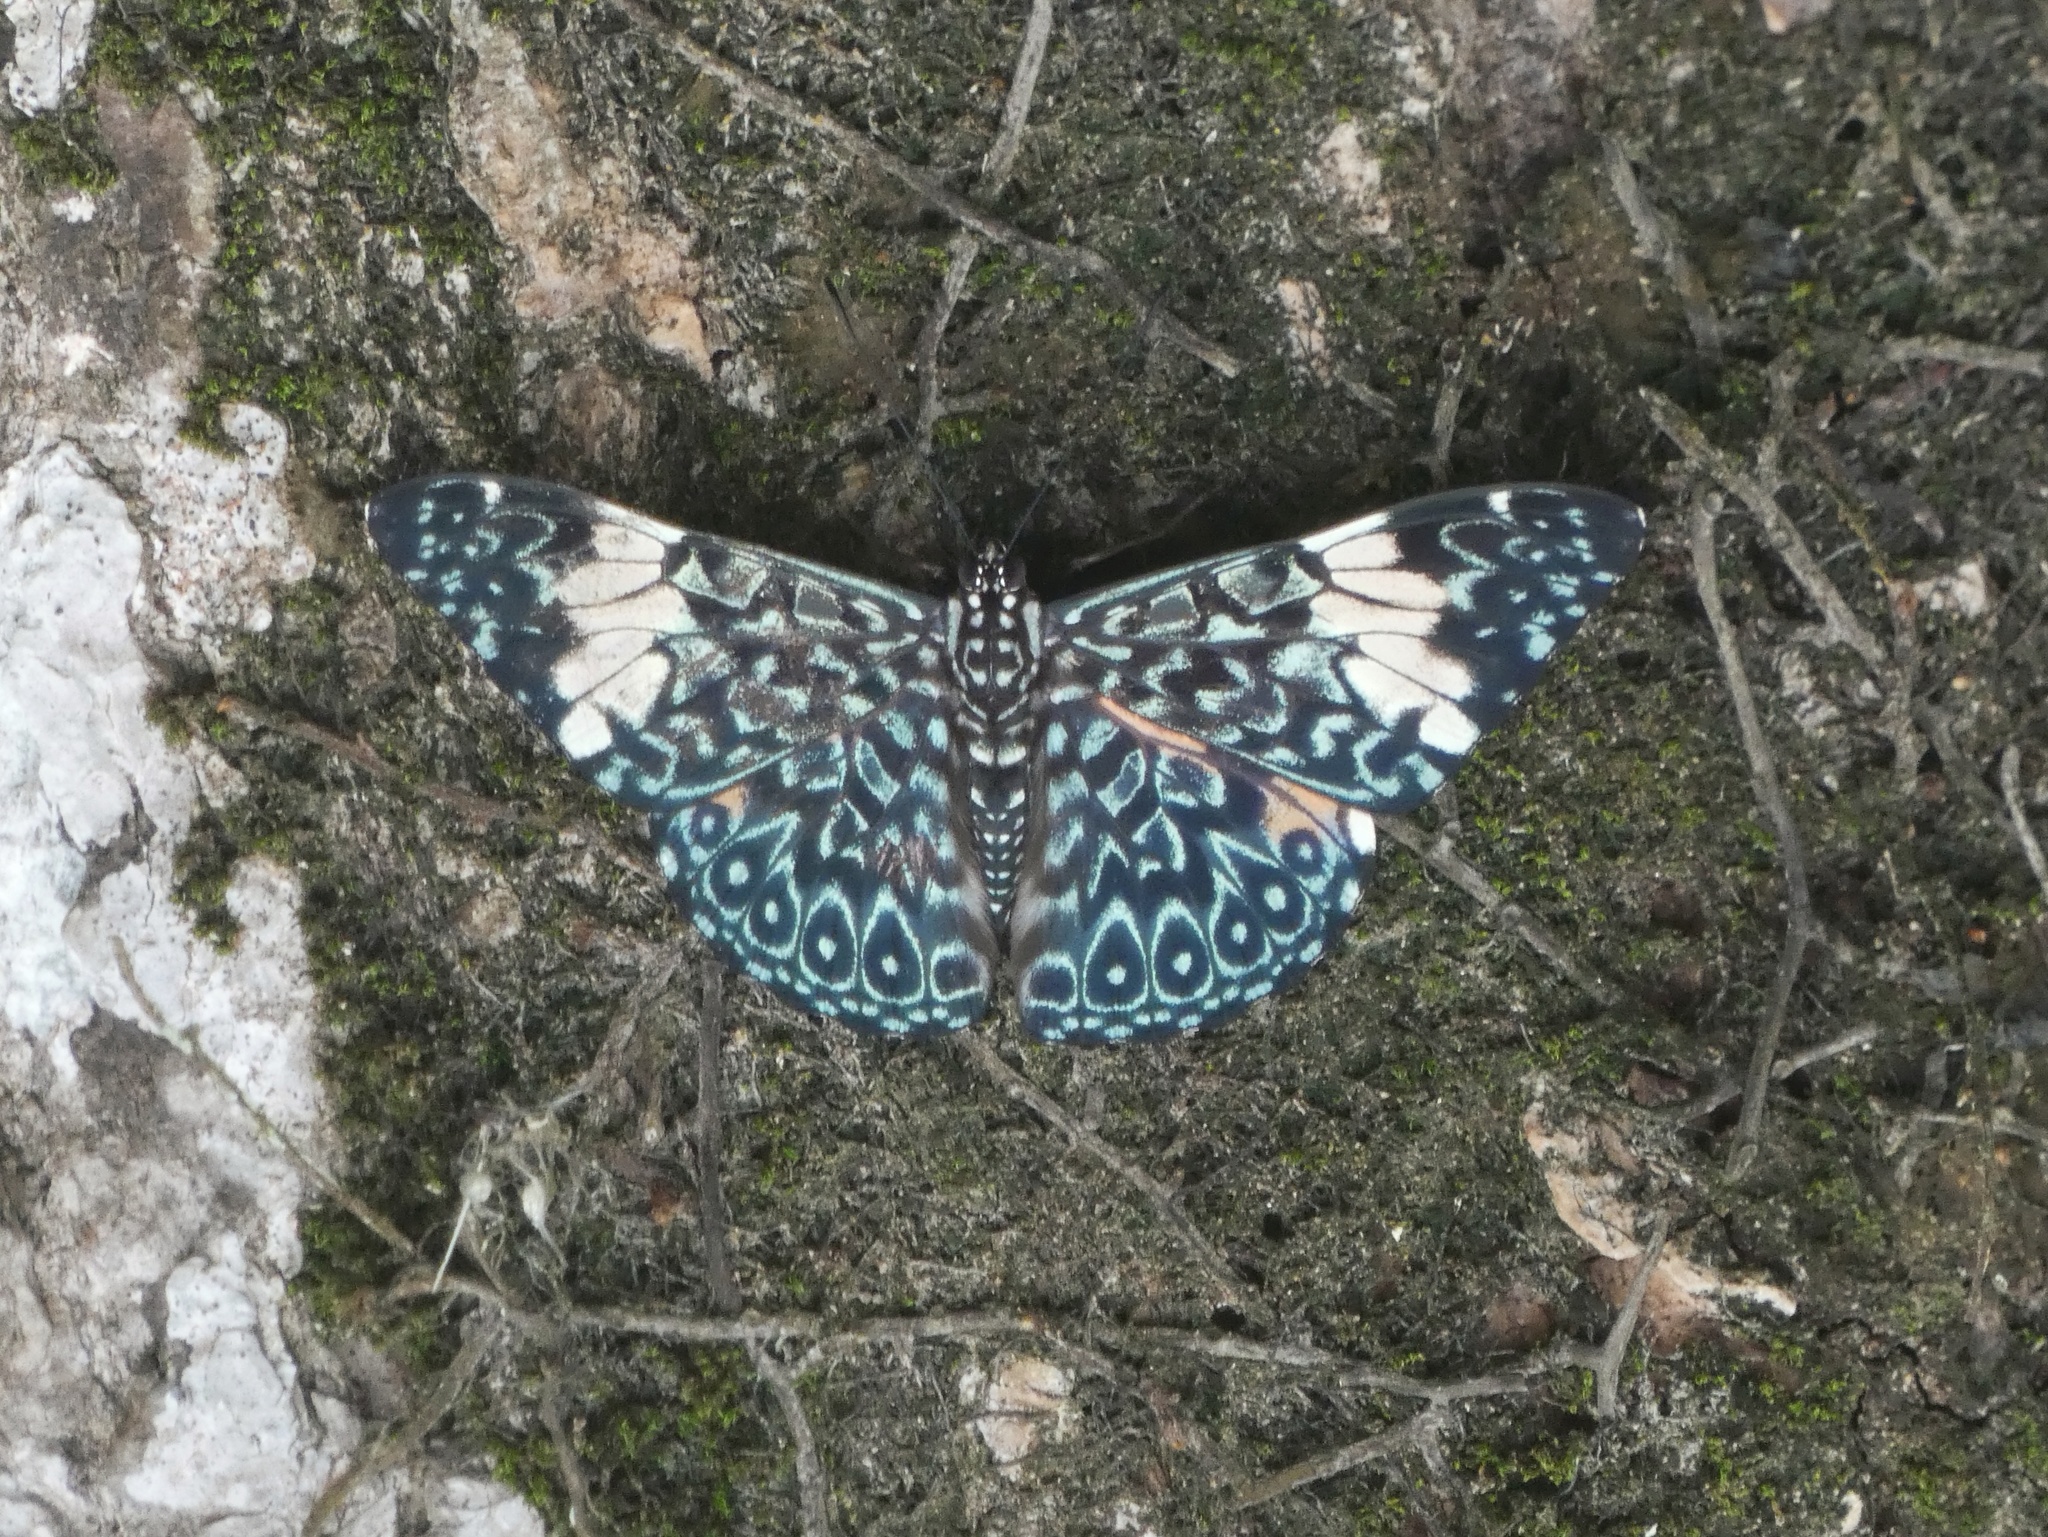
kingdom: Animalia
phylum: Arthropoda
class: Insecta
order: Lepidoptera
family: Nymphalidae
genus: Hamadryas
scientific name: Hamadryas amphinome
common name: Red cracker
